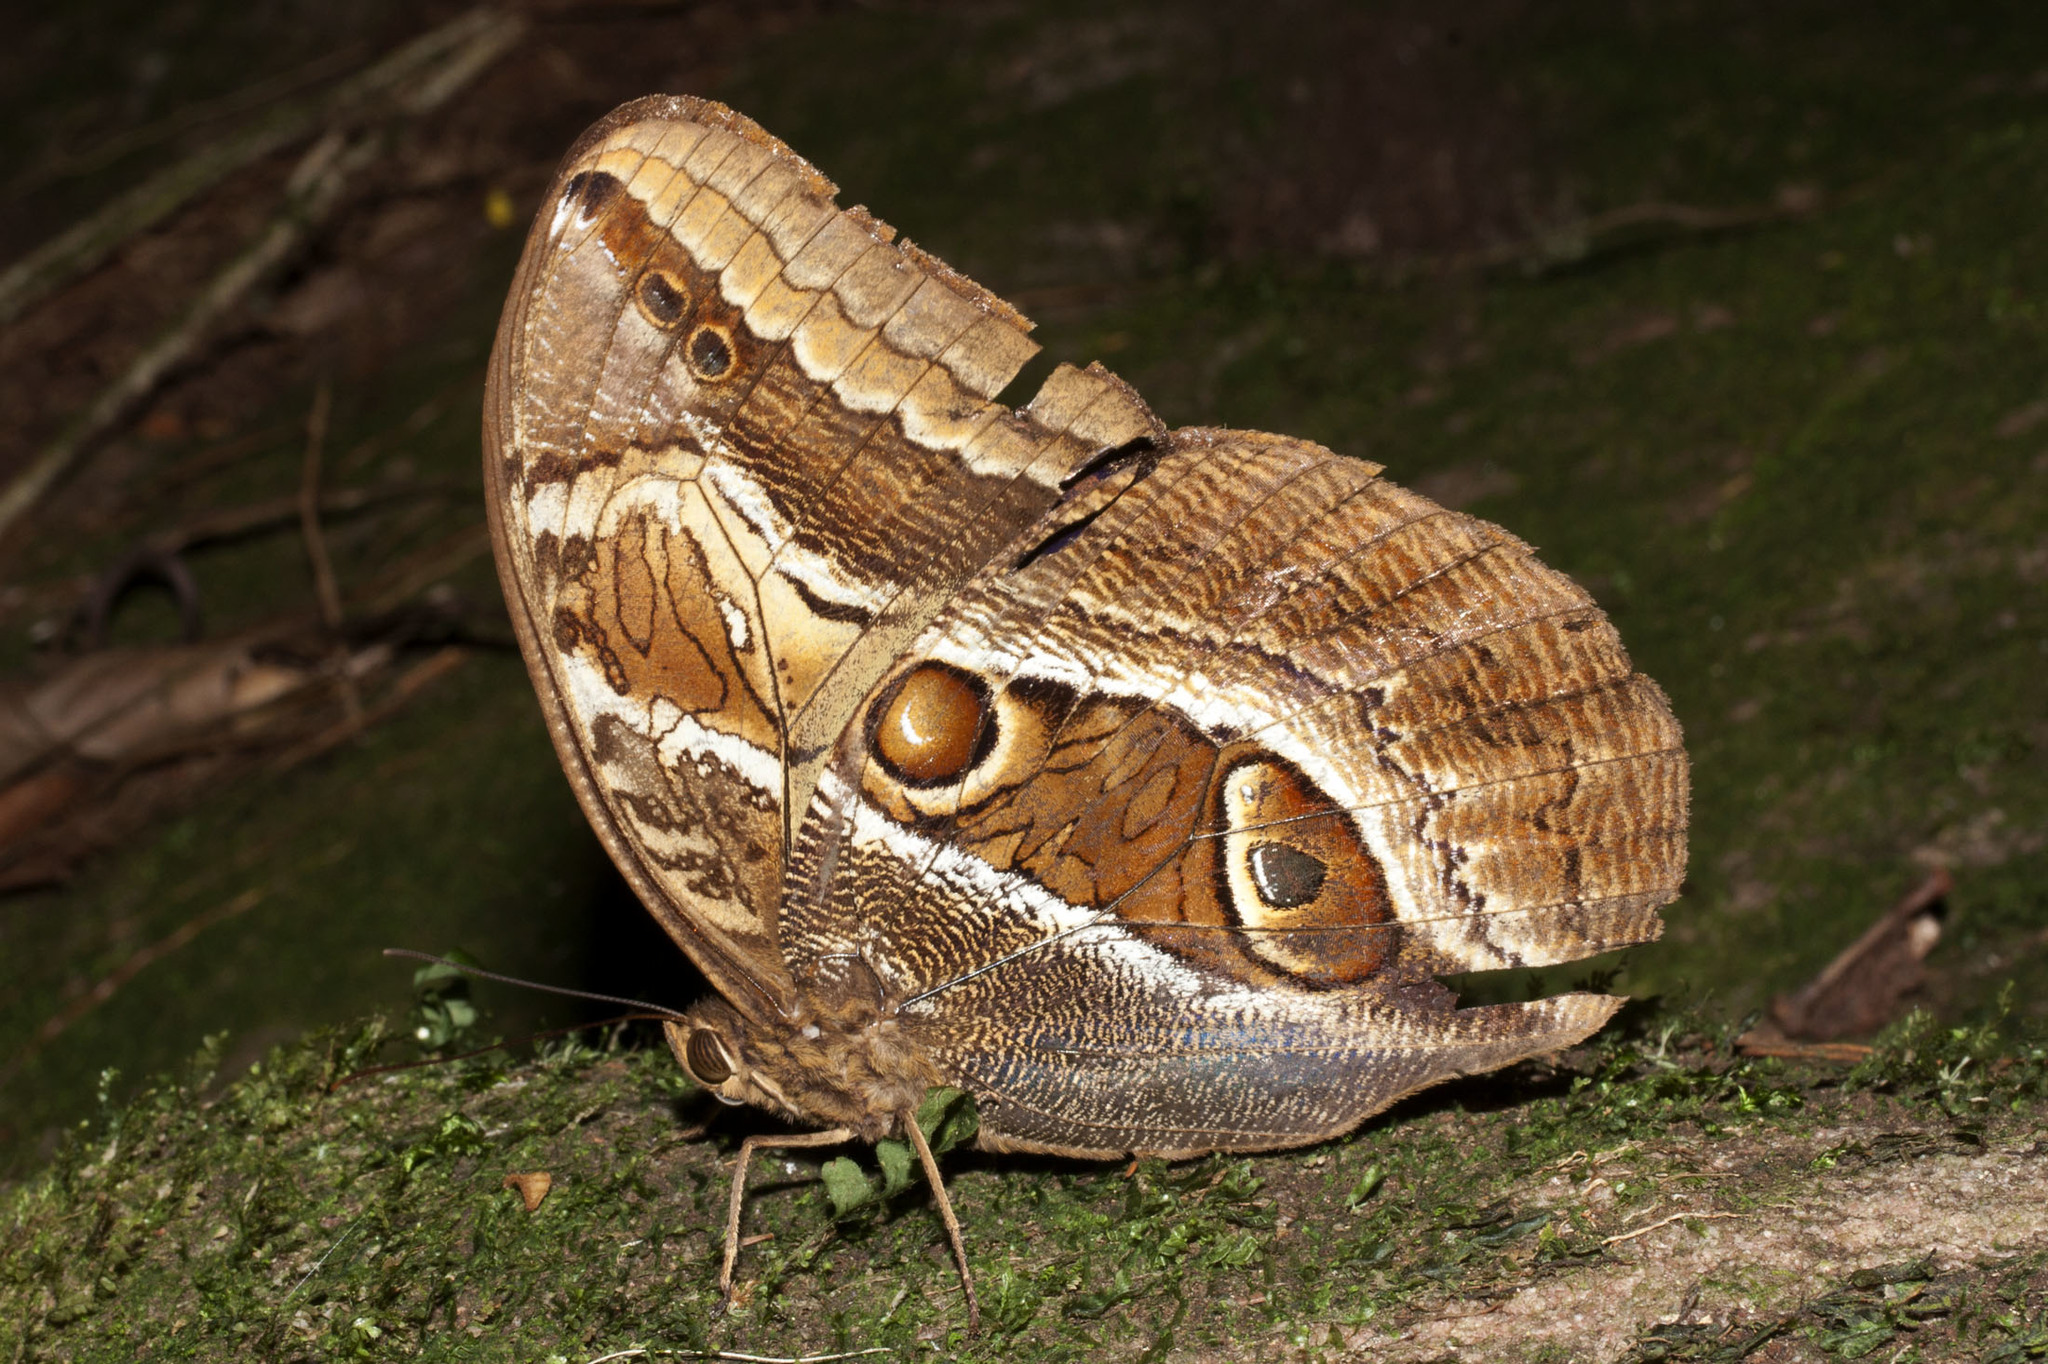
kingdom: Animalia
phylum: Arthropoda
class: Insecta
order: Lepidoptera
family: Nymphalidae
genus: Caligopsis
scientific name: Caligopsis seleucida
